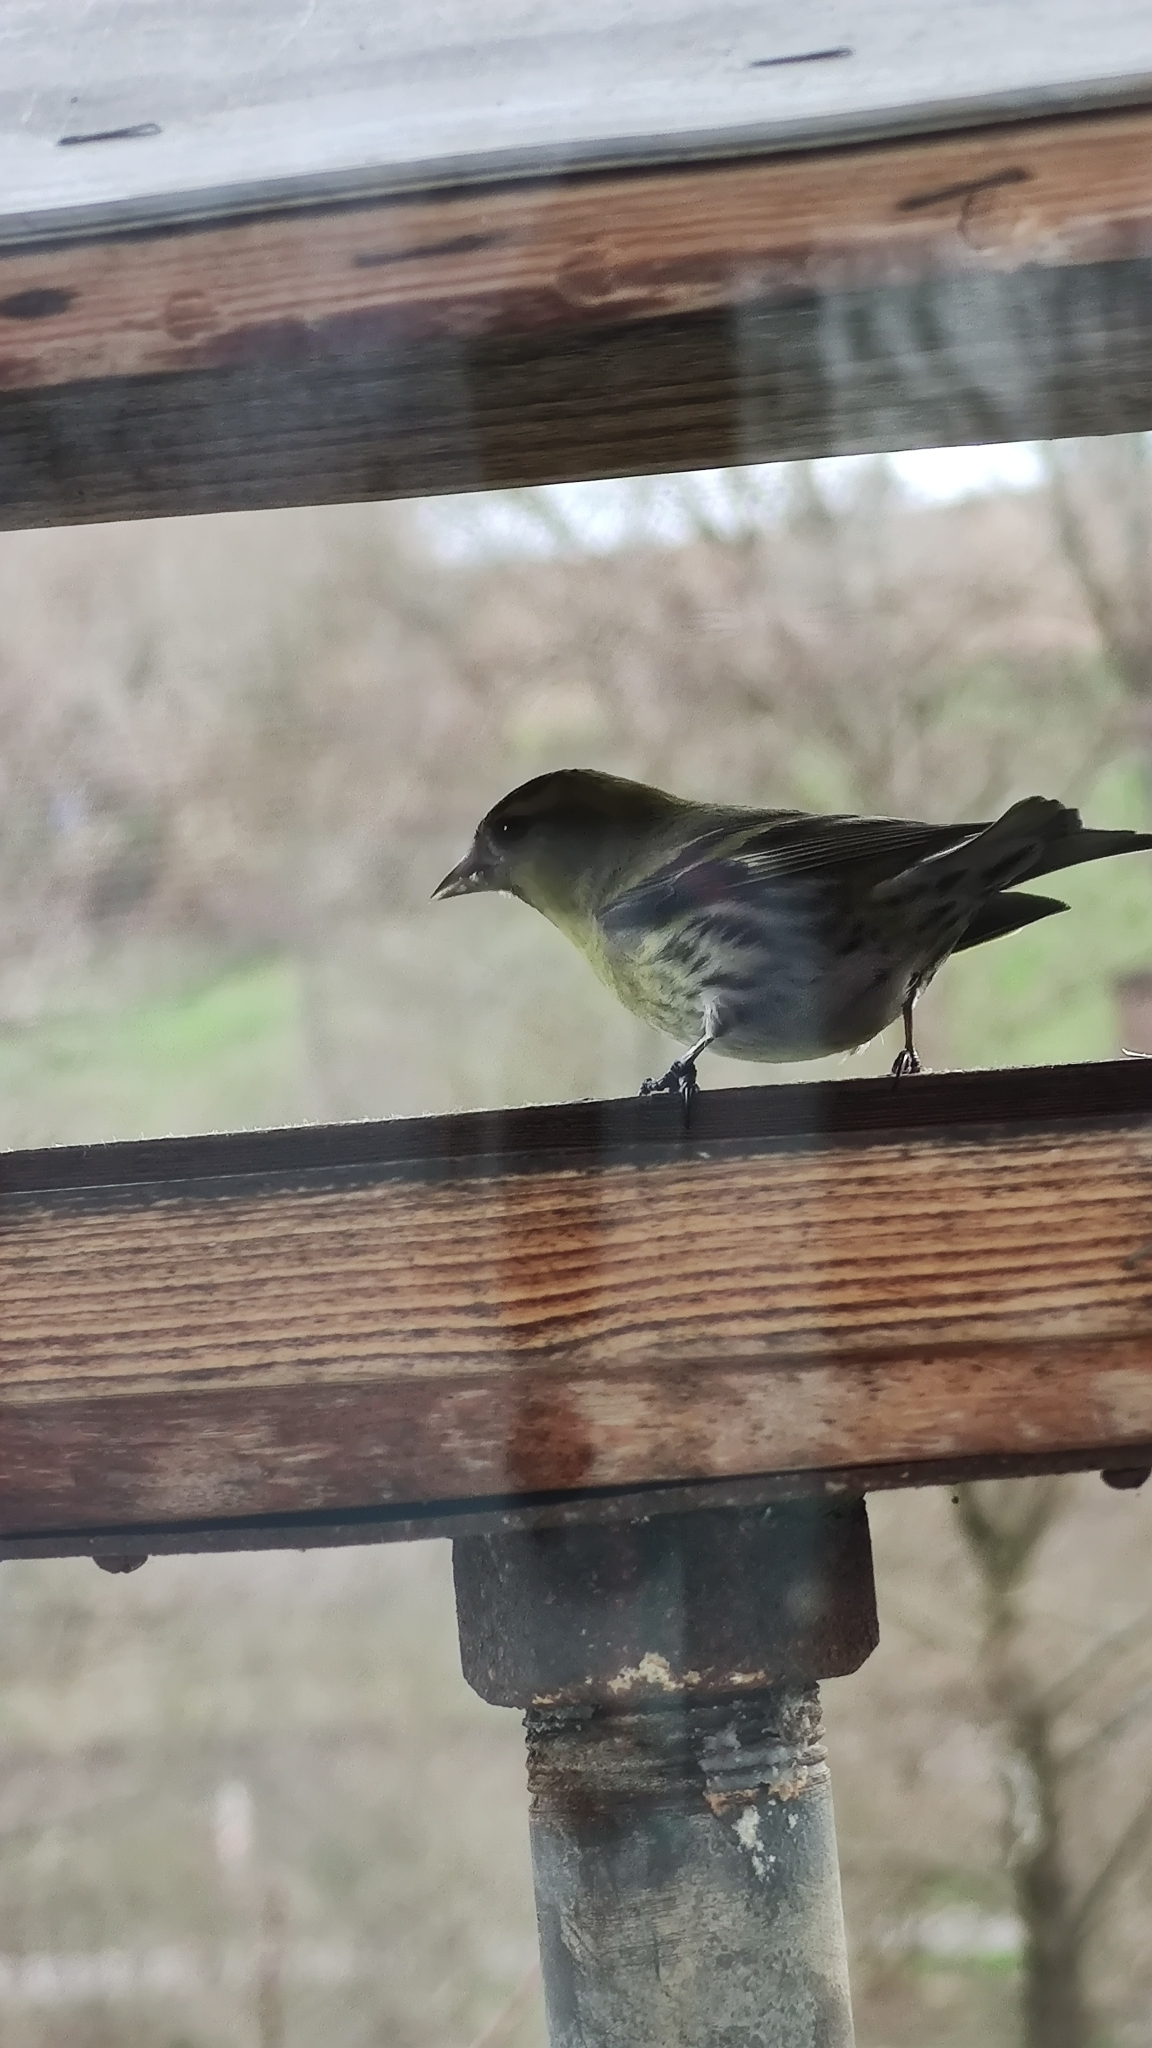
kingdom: Animalia
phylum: Chordata
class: Aves
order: Passeriformes
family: Fringillidae
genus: Spinus
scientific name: Spinus spinus
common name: Eurasian siskin
